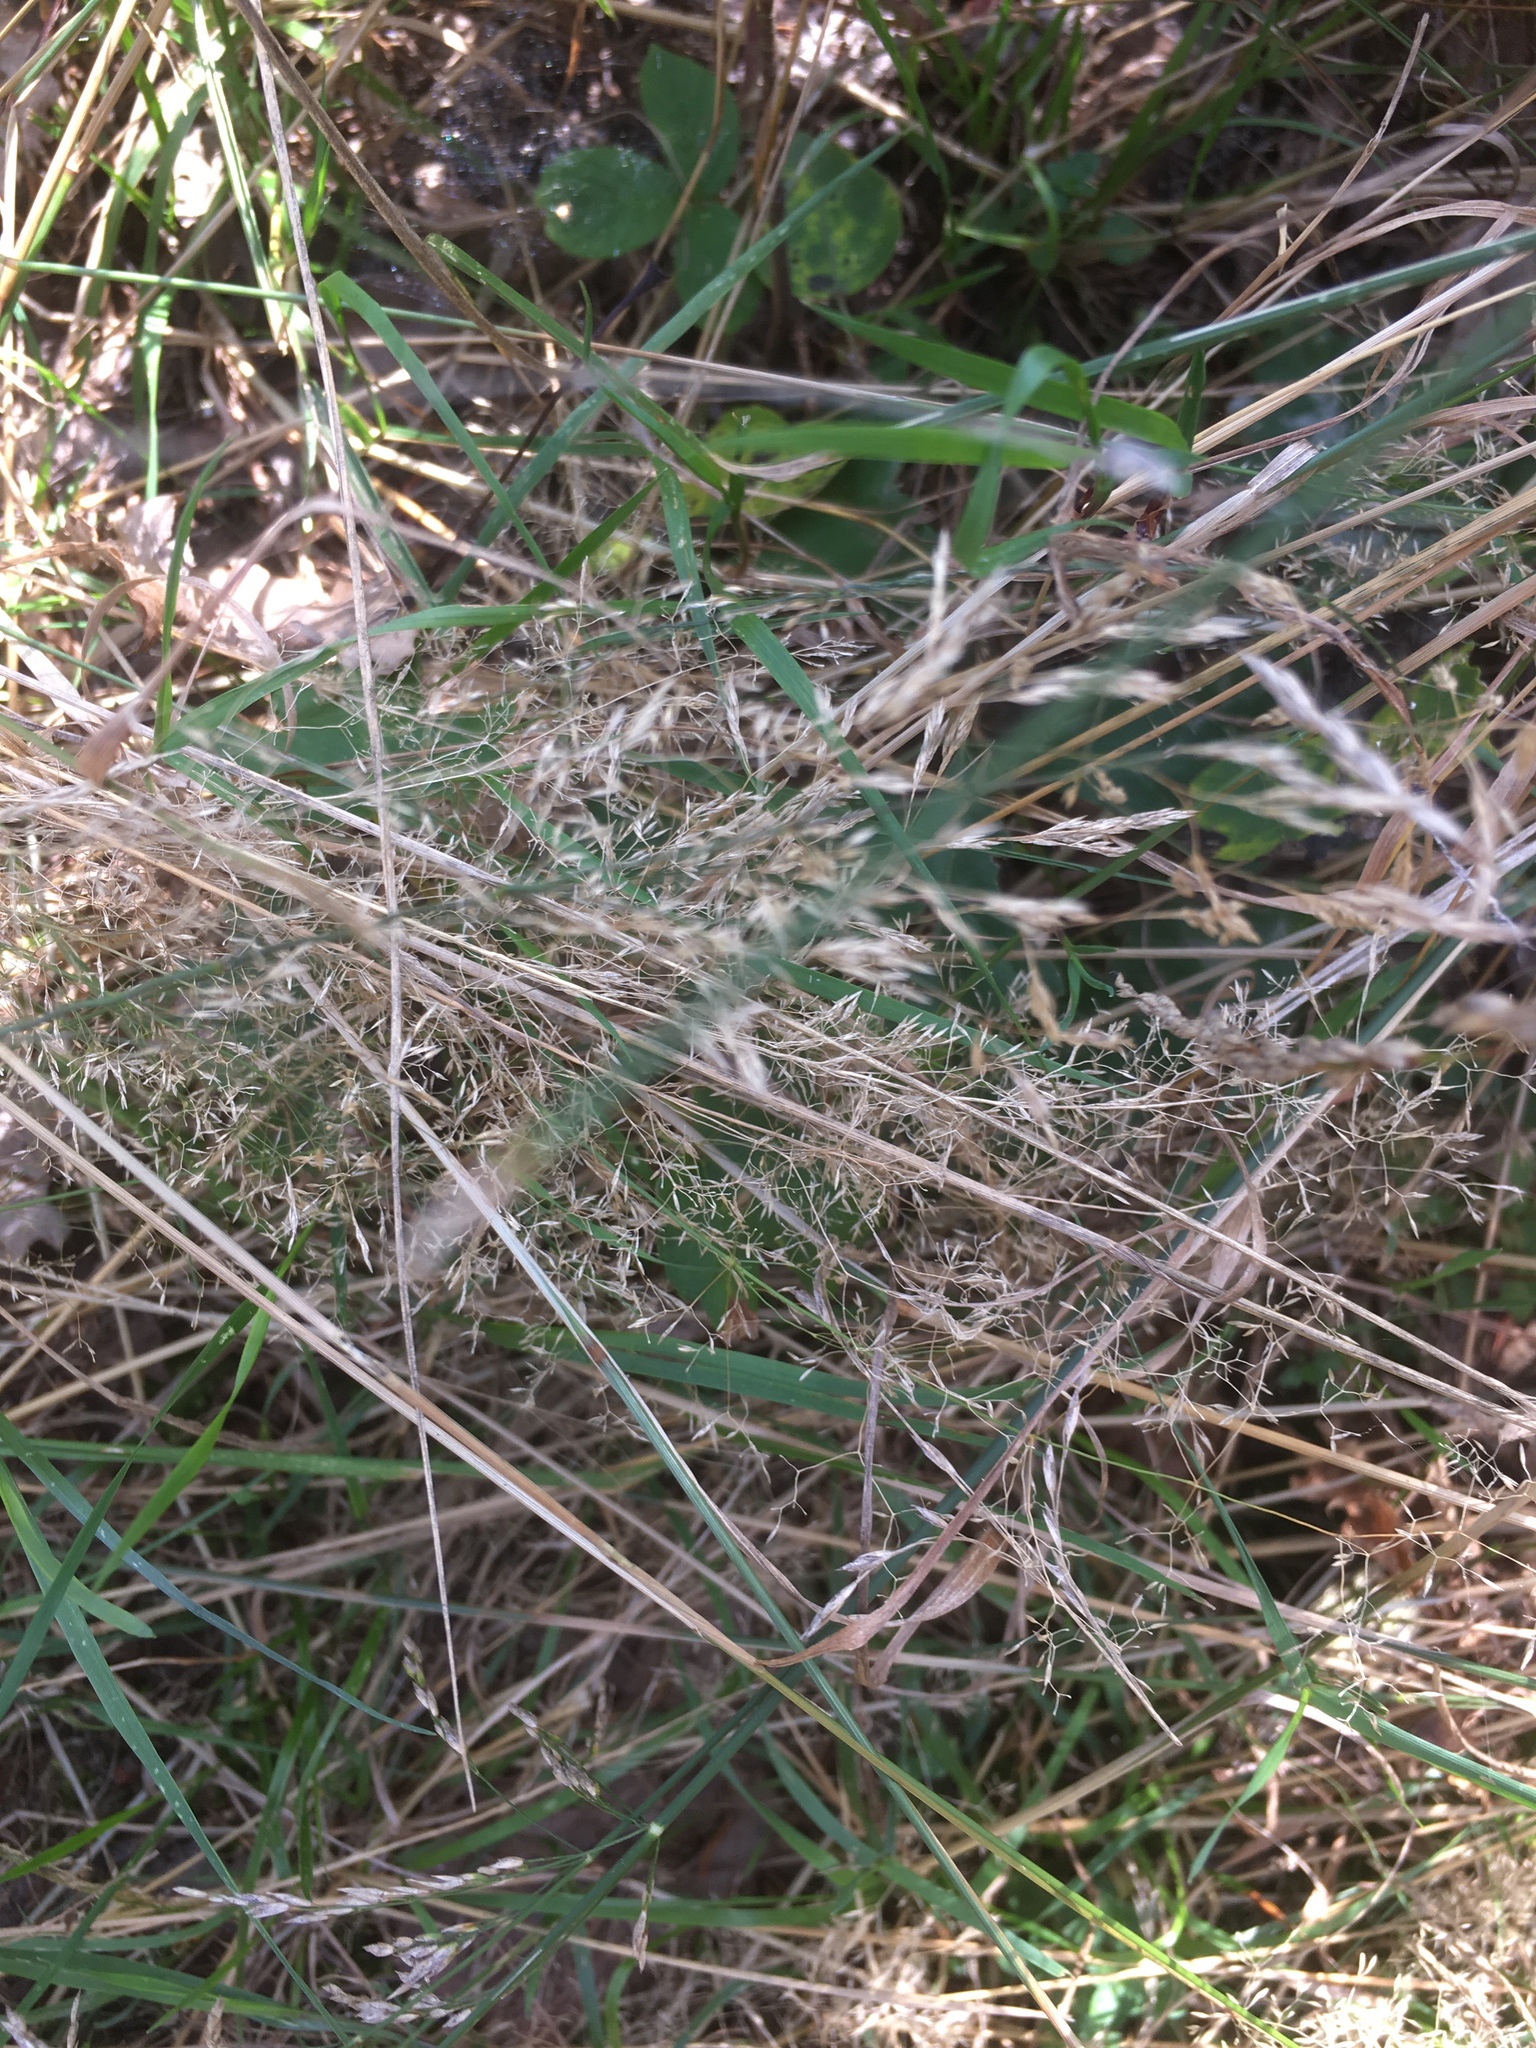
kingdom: Plantae
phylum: Tracheophyta
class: Liliopsida
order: Poales
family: Poaceae
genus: Avenella
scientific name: Avenella flexuosa
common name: Wavy hairgrass
